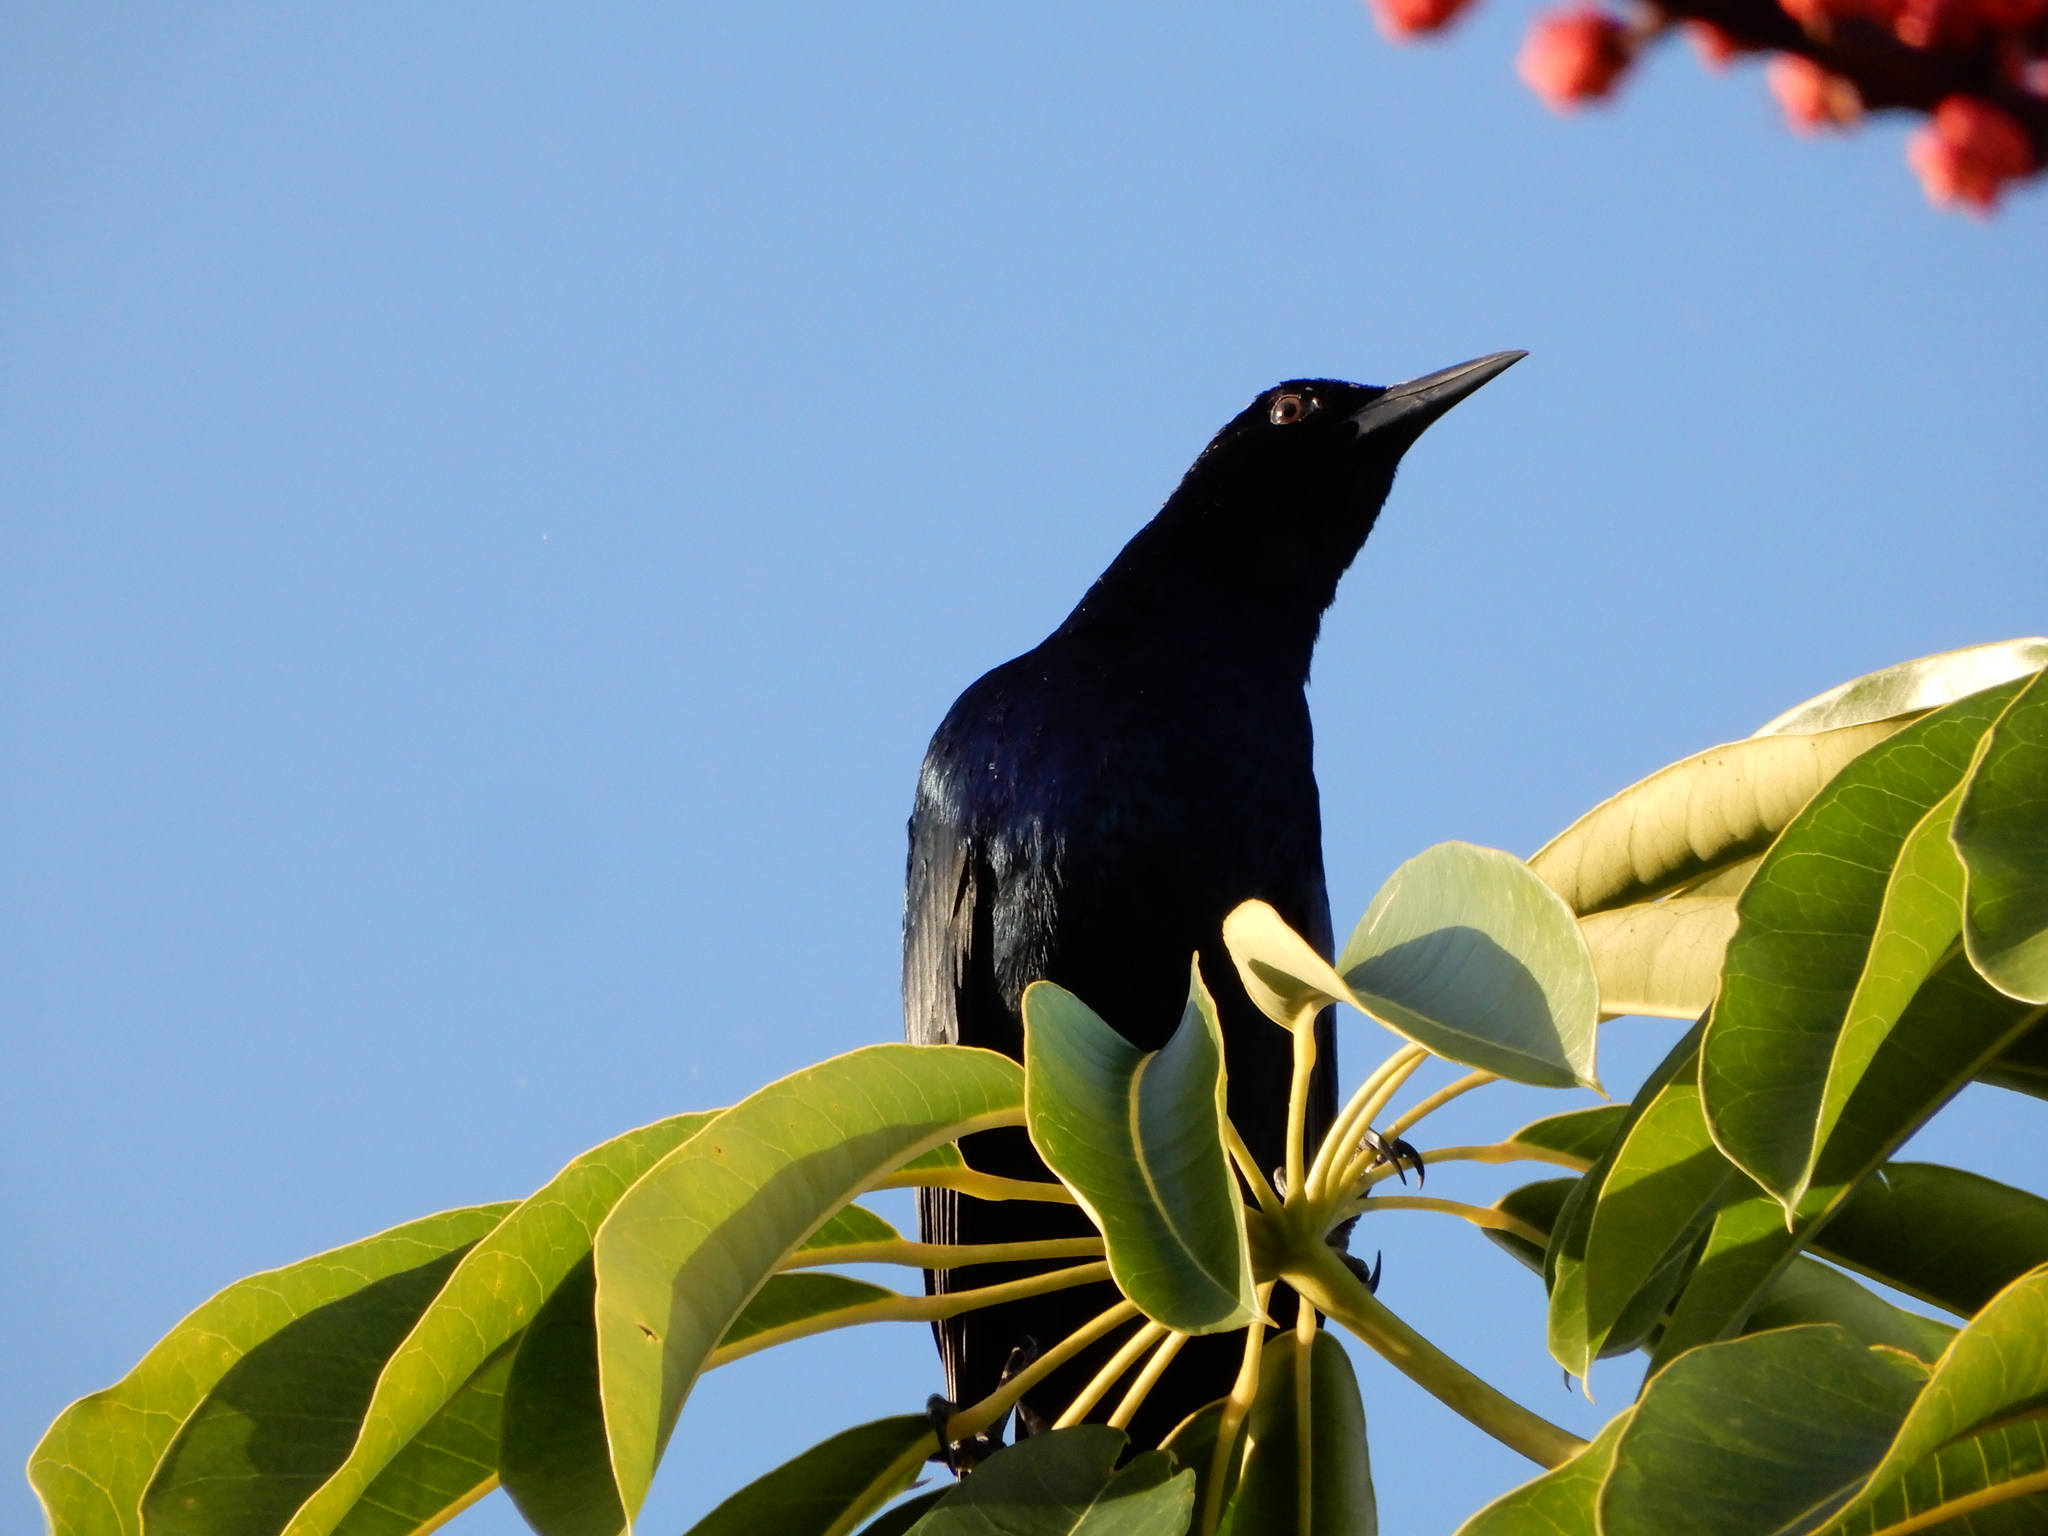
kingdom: Animalia
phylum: Chordata
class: Aves
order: Passeriformes
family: Icteridae
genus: Quiscalus
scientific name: Quiscalus major
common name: Boat-tailed grackle
